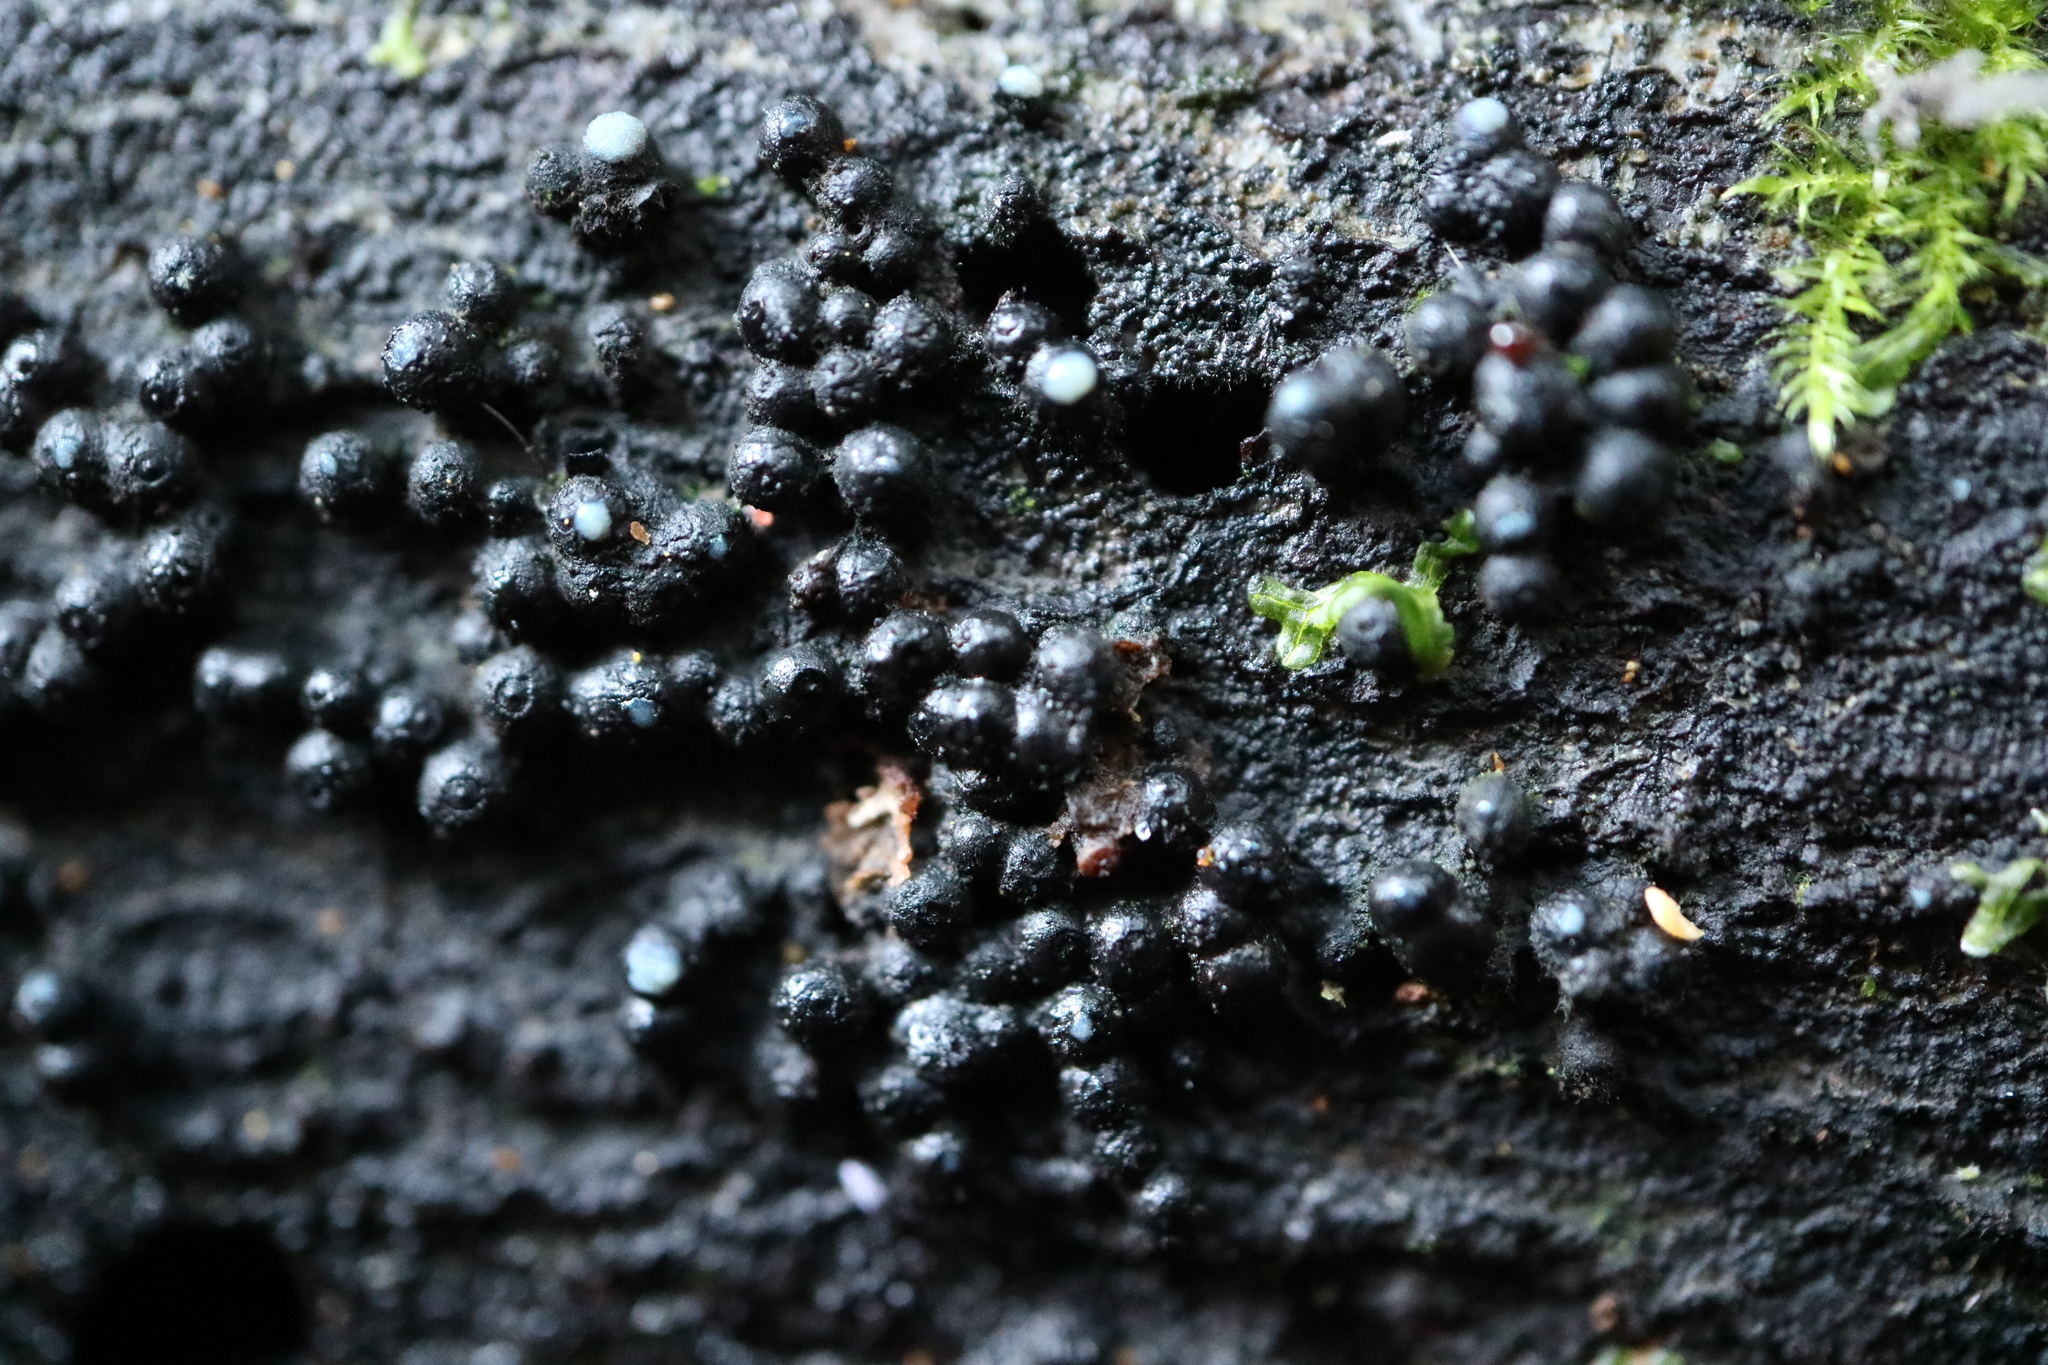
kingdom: Fungi
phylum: Ascomycota
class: Sordariomycetes
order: Xylariales
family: Hypoxylaceae
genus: Annulohypoxylon
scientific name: Annulohypoxylon bovei
